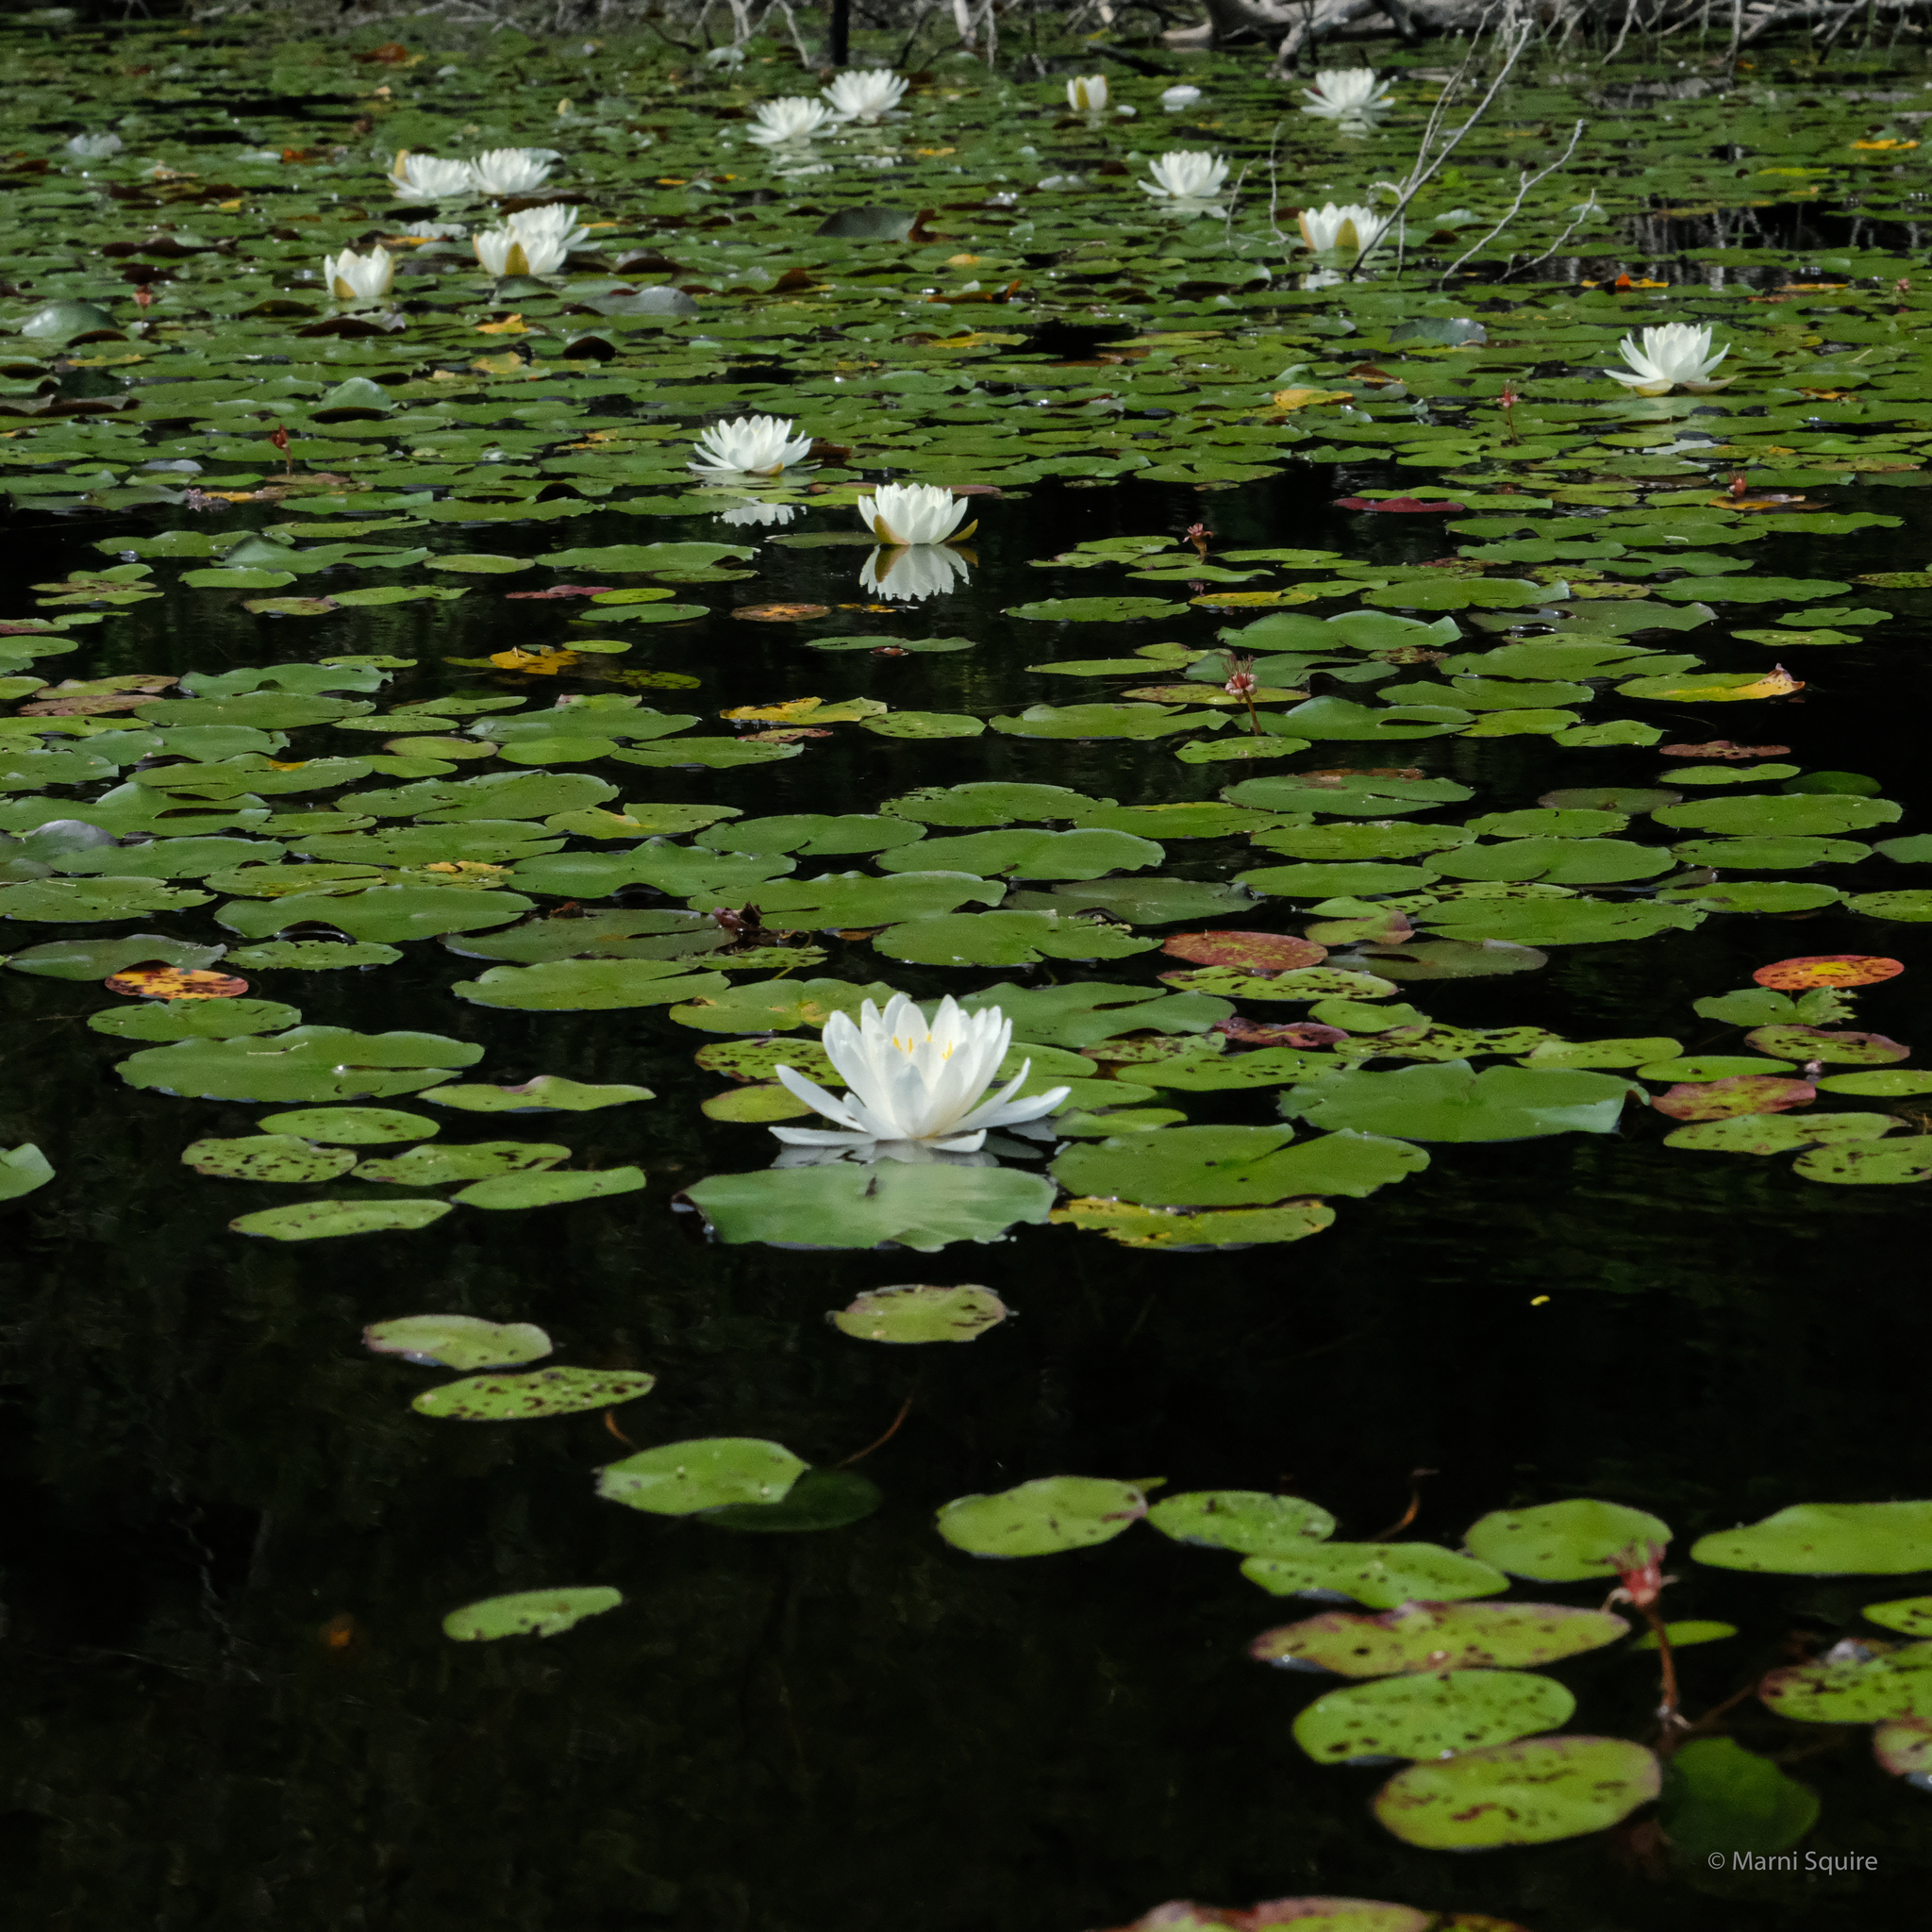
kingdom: Plantae
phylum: Tracheophyta
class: Magnoliopsida
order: Nymphaeales
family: Nymphaeaceae
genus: Nymphaea
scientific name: Nymphaea odorata
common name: Fragrant water-lily
